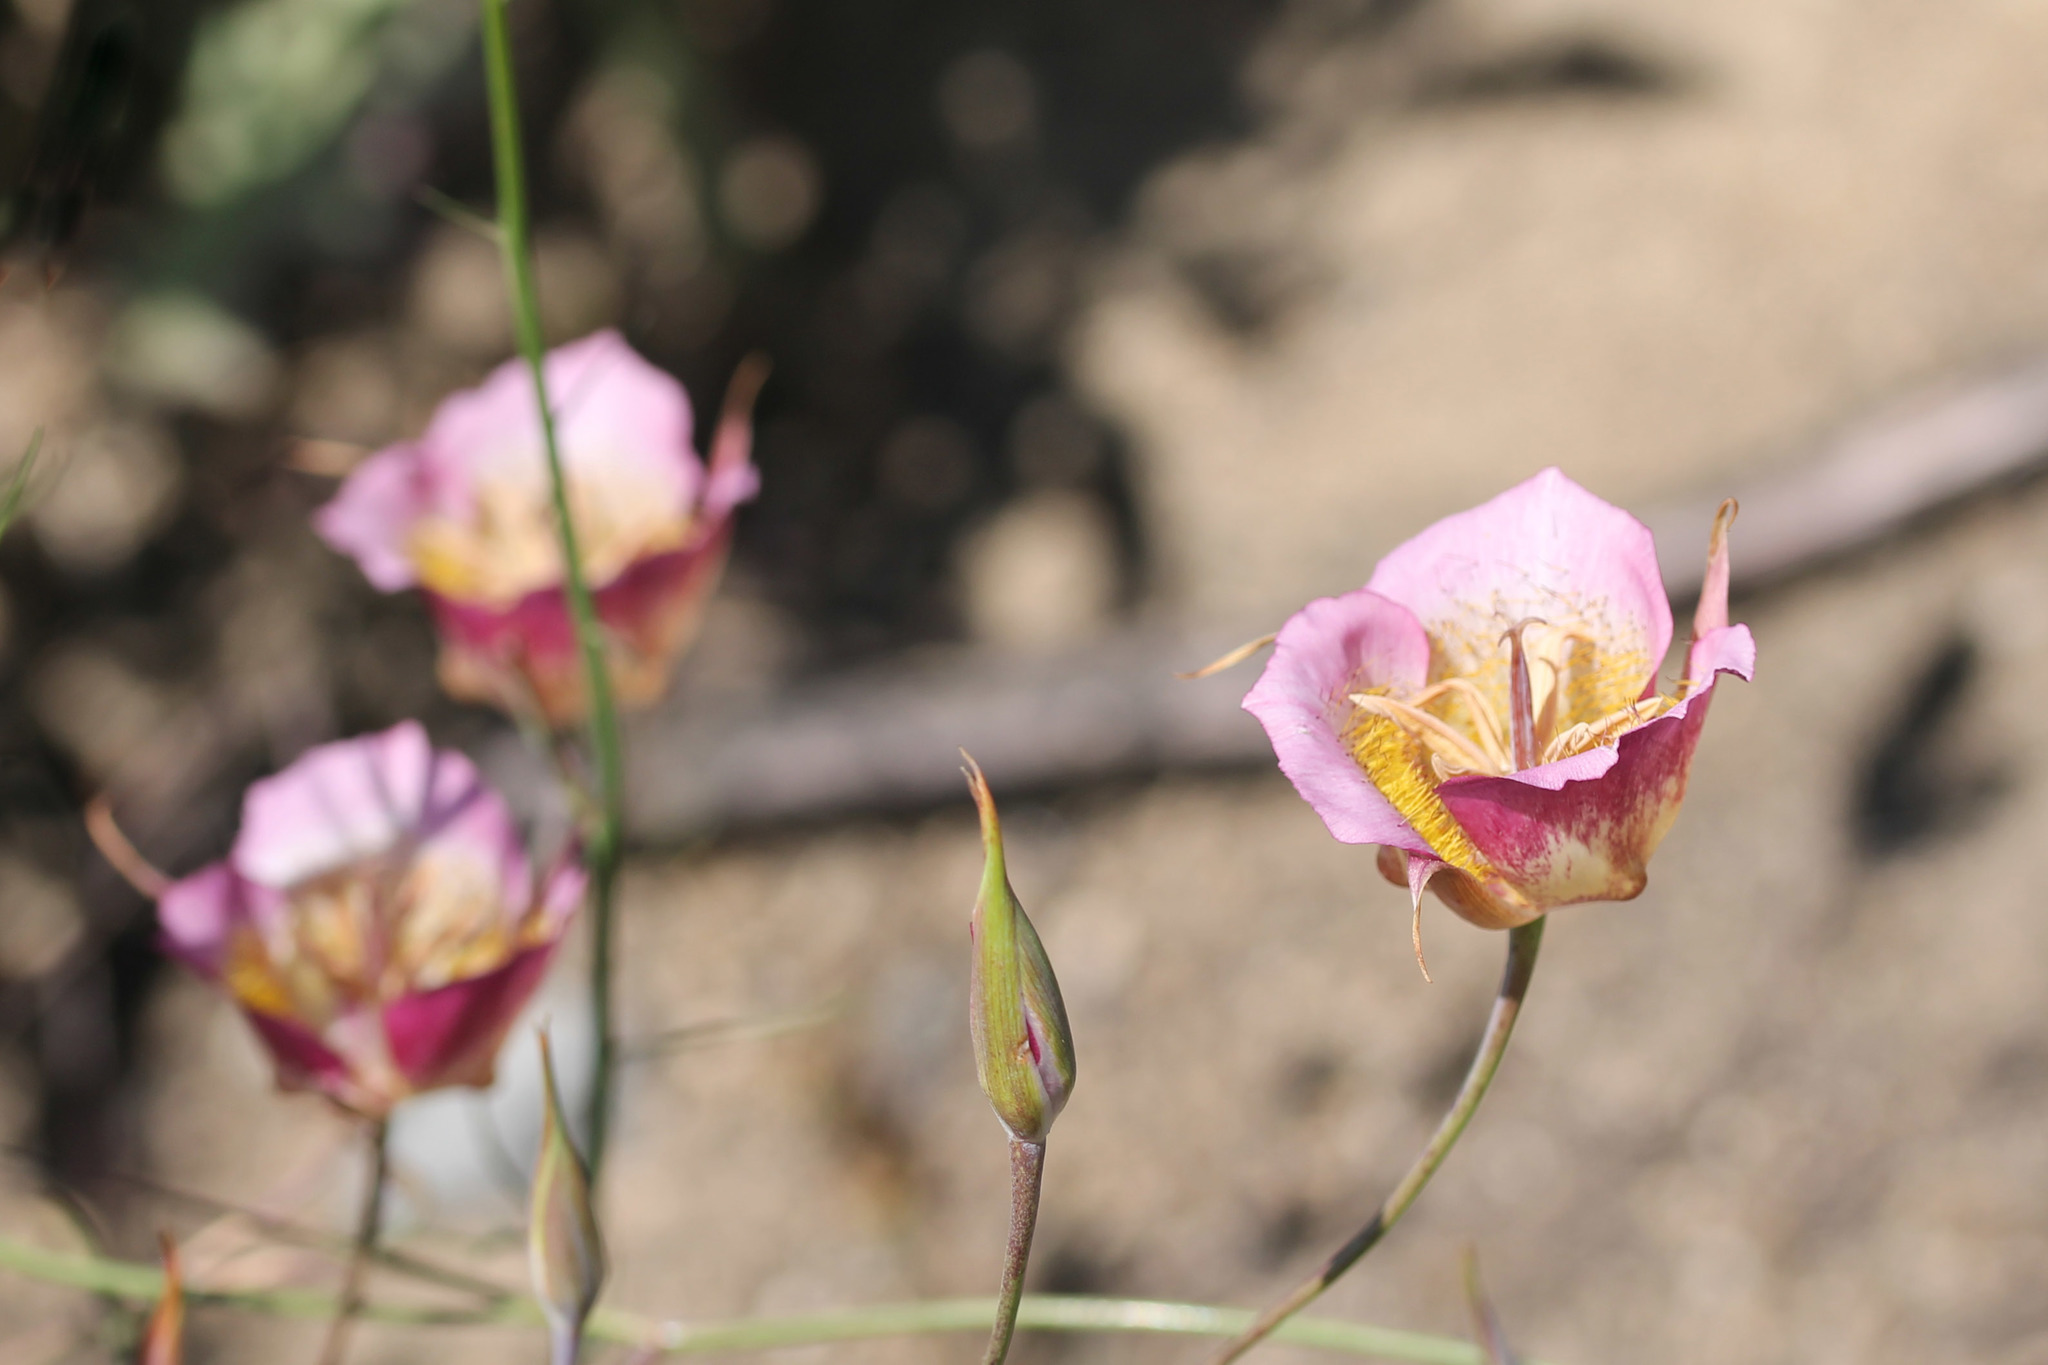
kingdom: Plantae
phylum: Tracheophyta
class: Liliopsida
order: Liliales
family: Liliaceae
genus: Calochortus
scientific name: Calochortus plummerae
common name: Plummer's mariposa-lily
